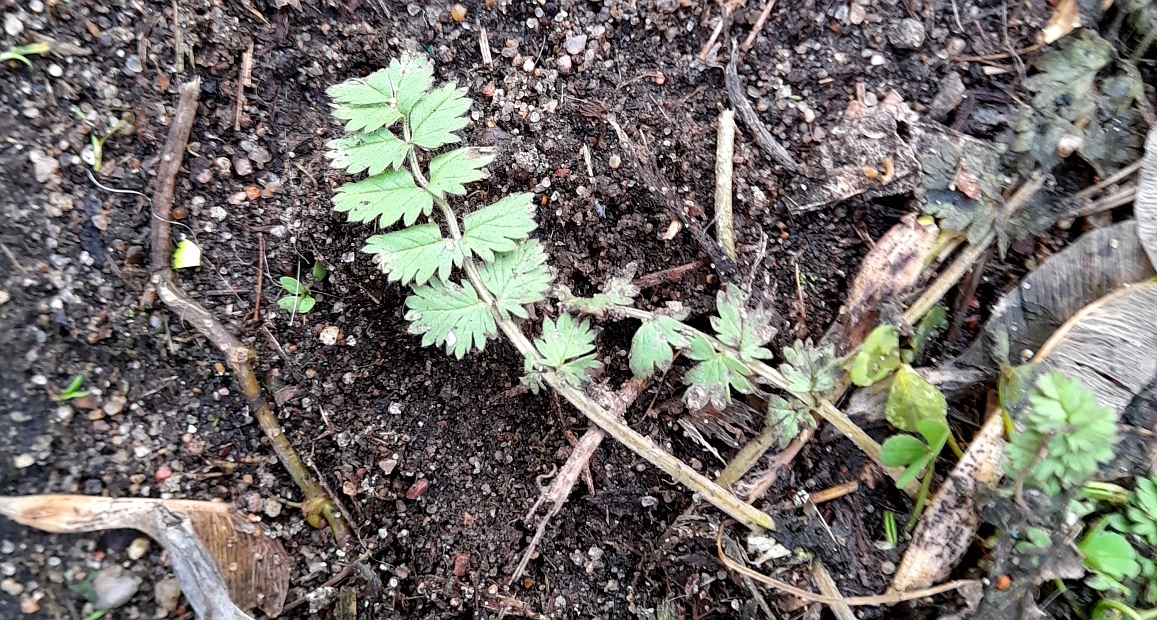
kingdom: Plantae
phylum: Tracheophyta
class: Magnoliopsida
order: Rosales
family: Rosaceae
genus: Potentilla
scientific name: Potentilla supina
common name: Prostrate cinquefoil
